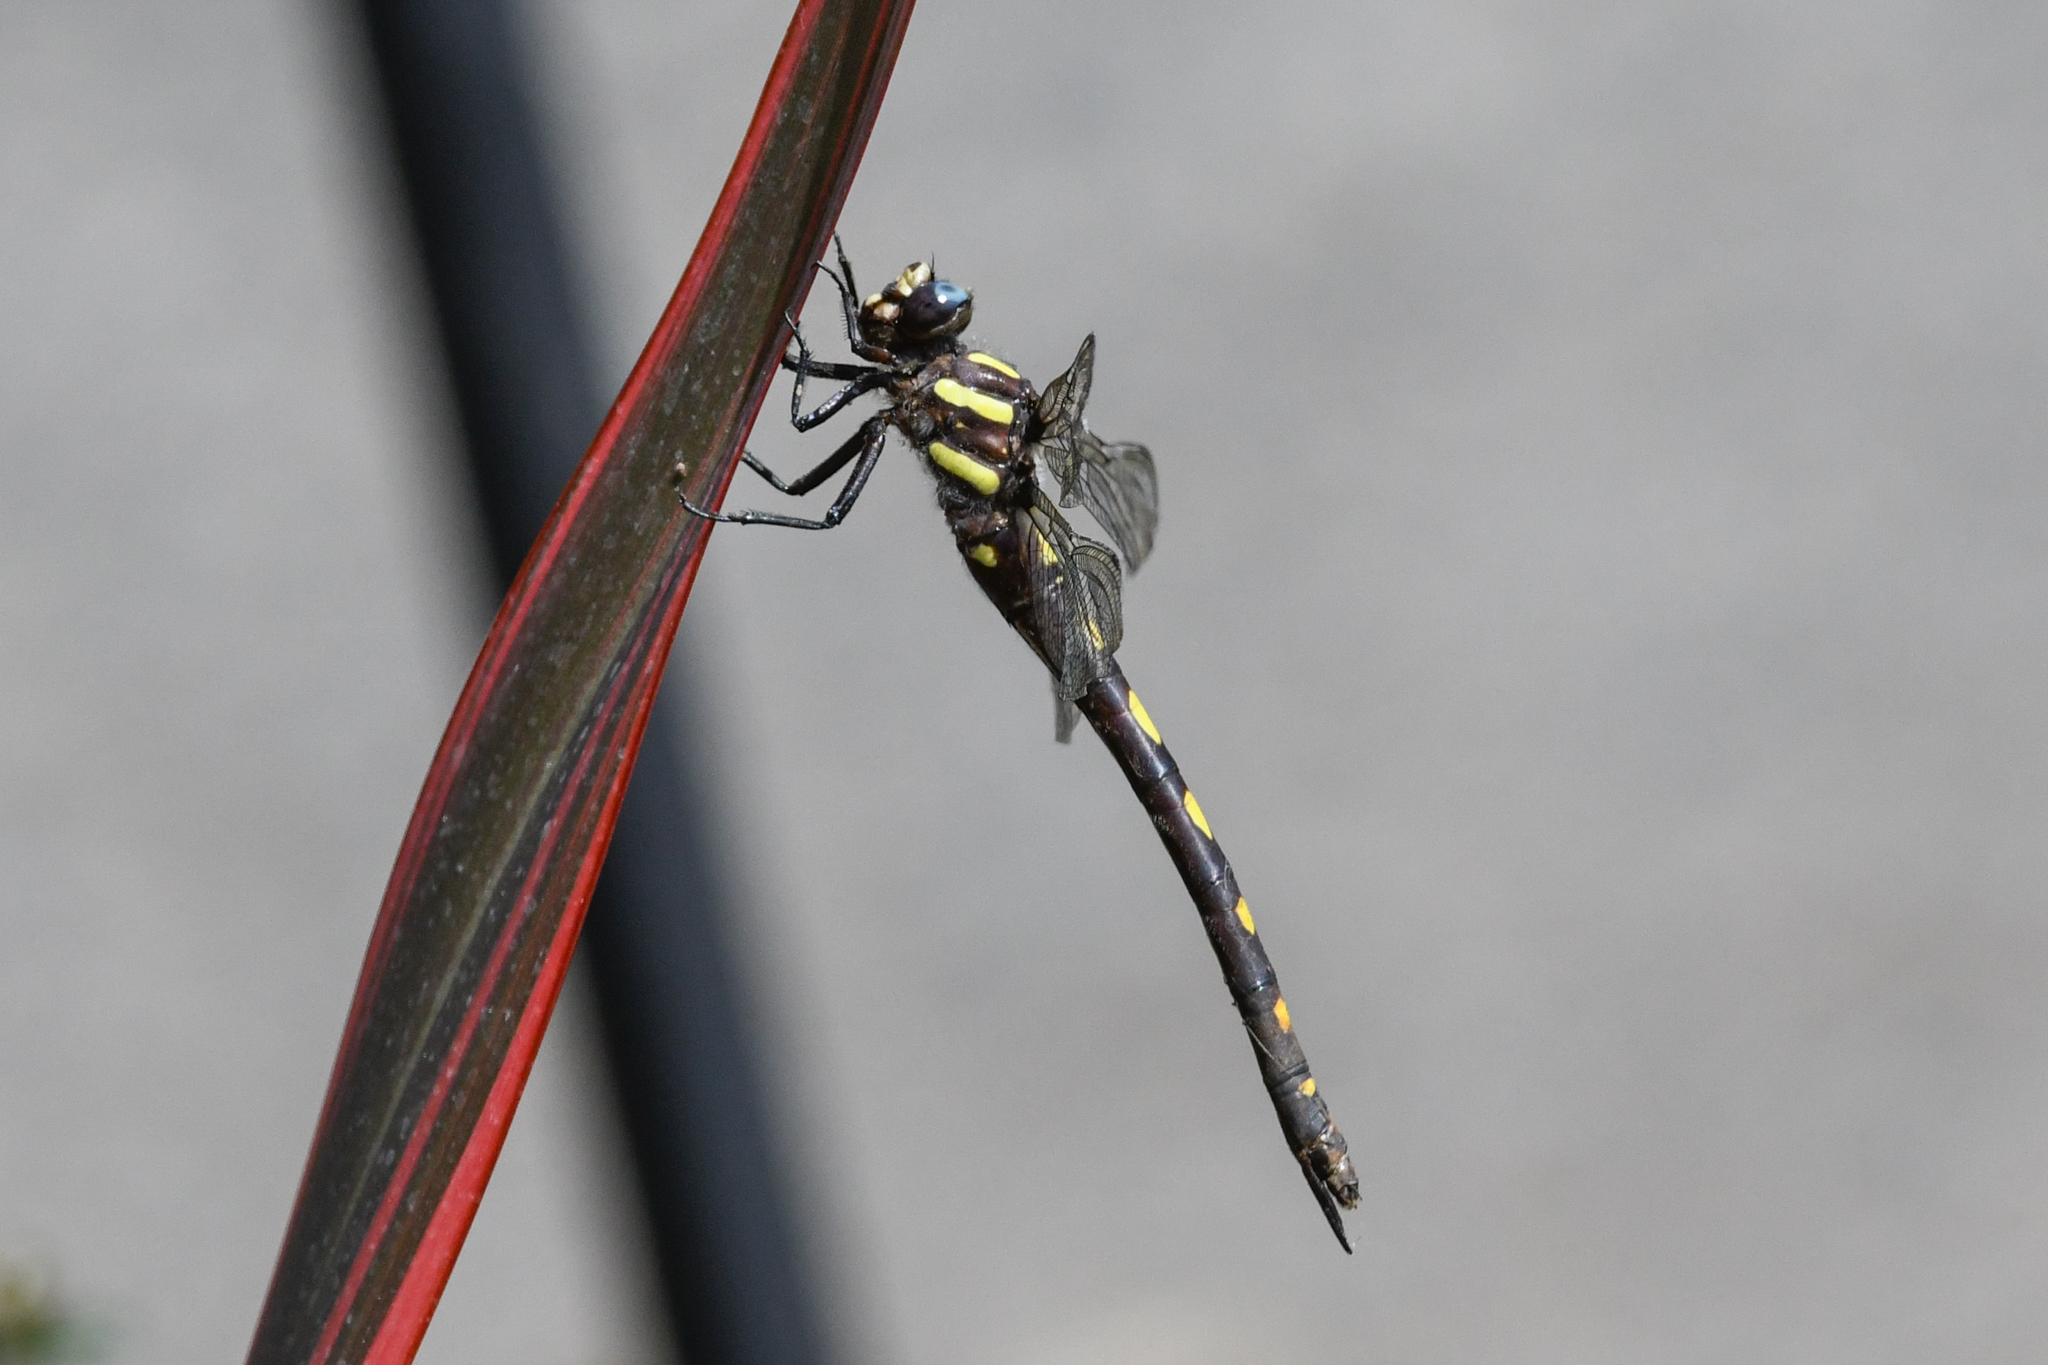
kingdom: Animalia
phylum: Arthropoda
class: Insecta
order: Odonata
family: Cordulegastridae
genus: Cordulegaster
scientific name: Cordulegaster dorsalis
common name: Pacific spiketail
